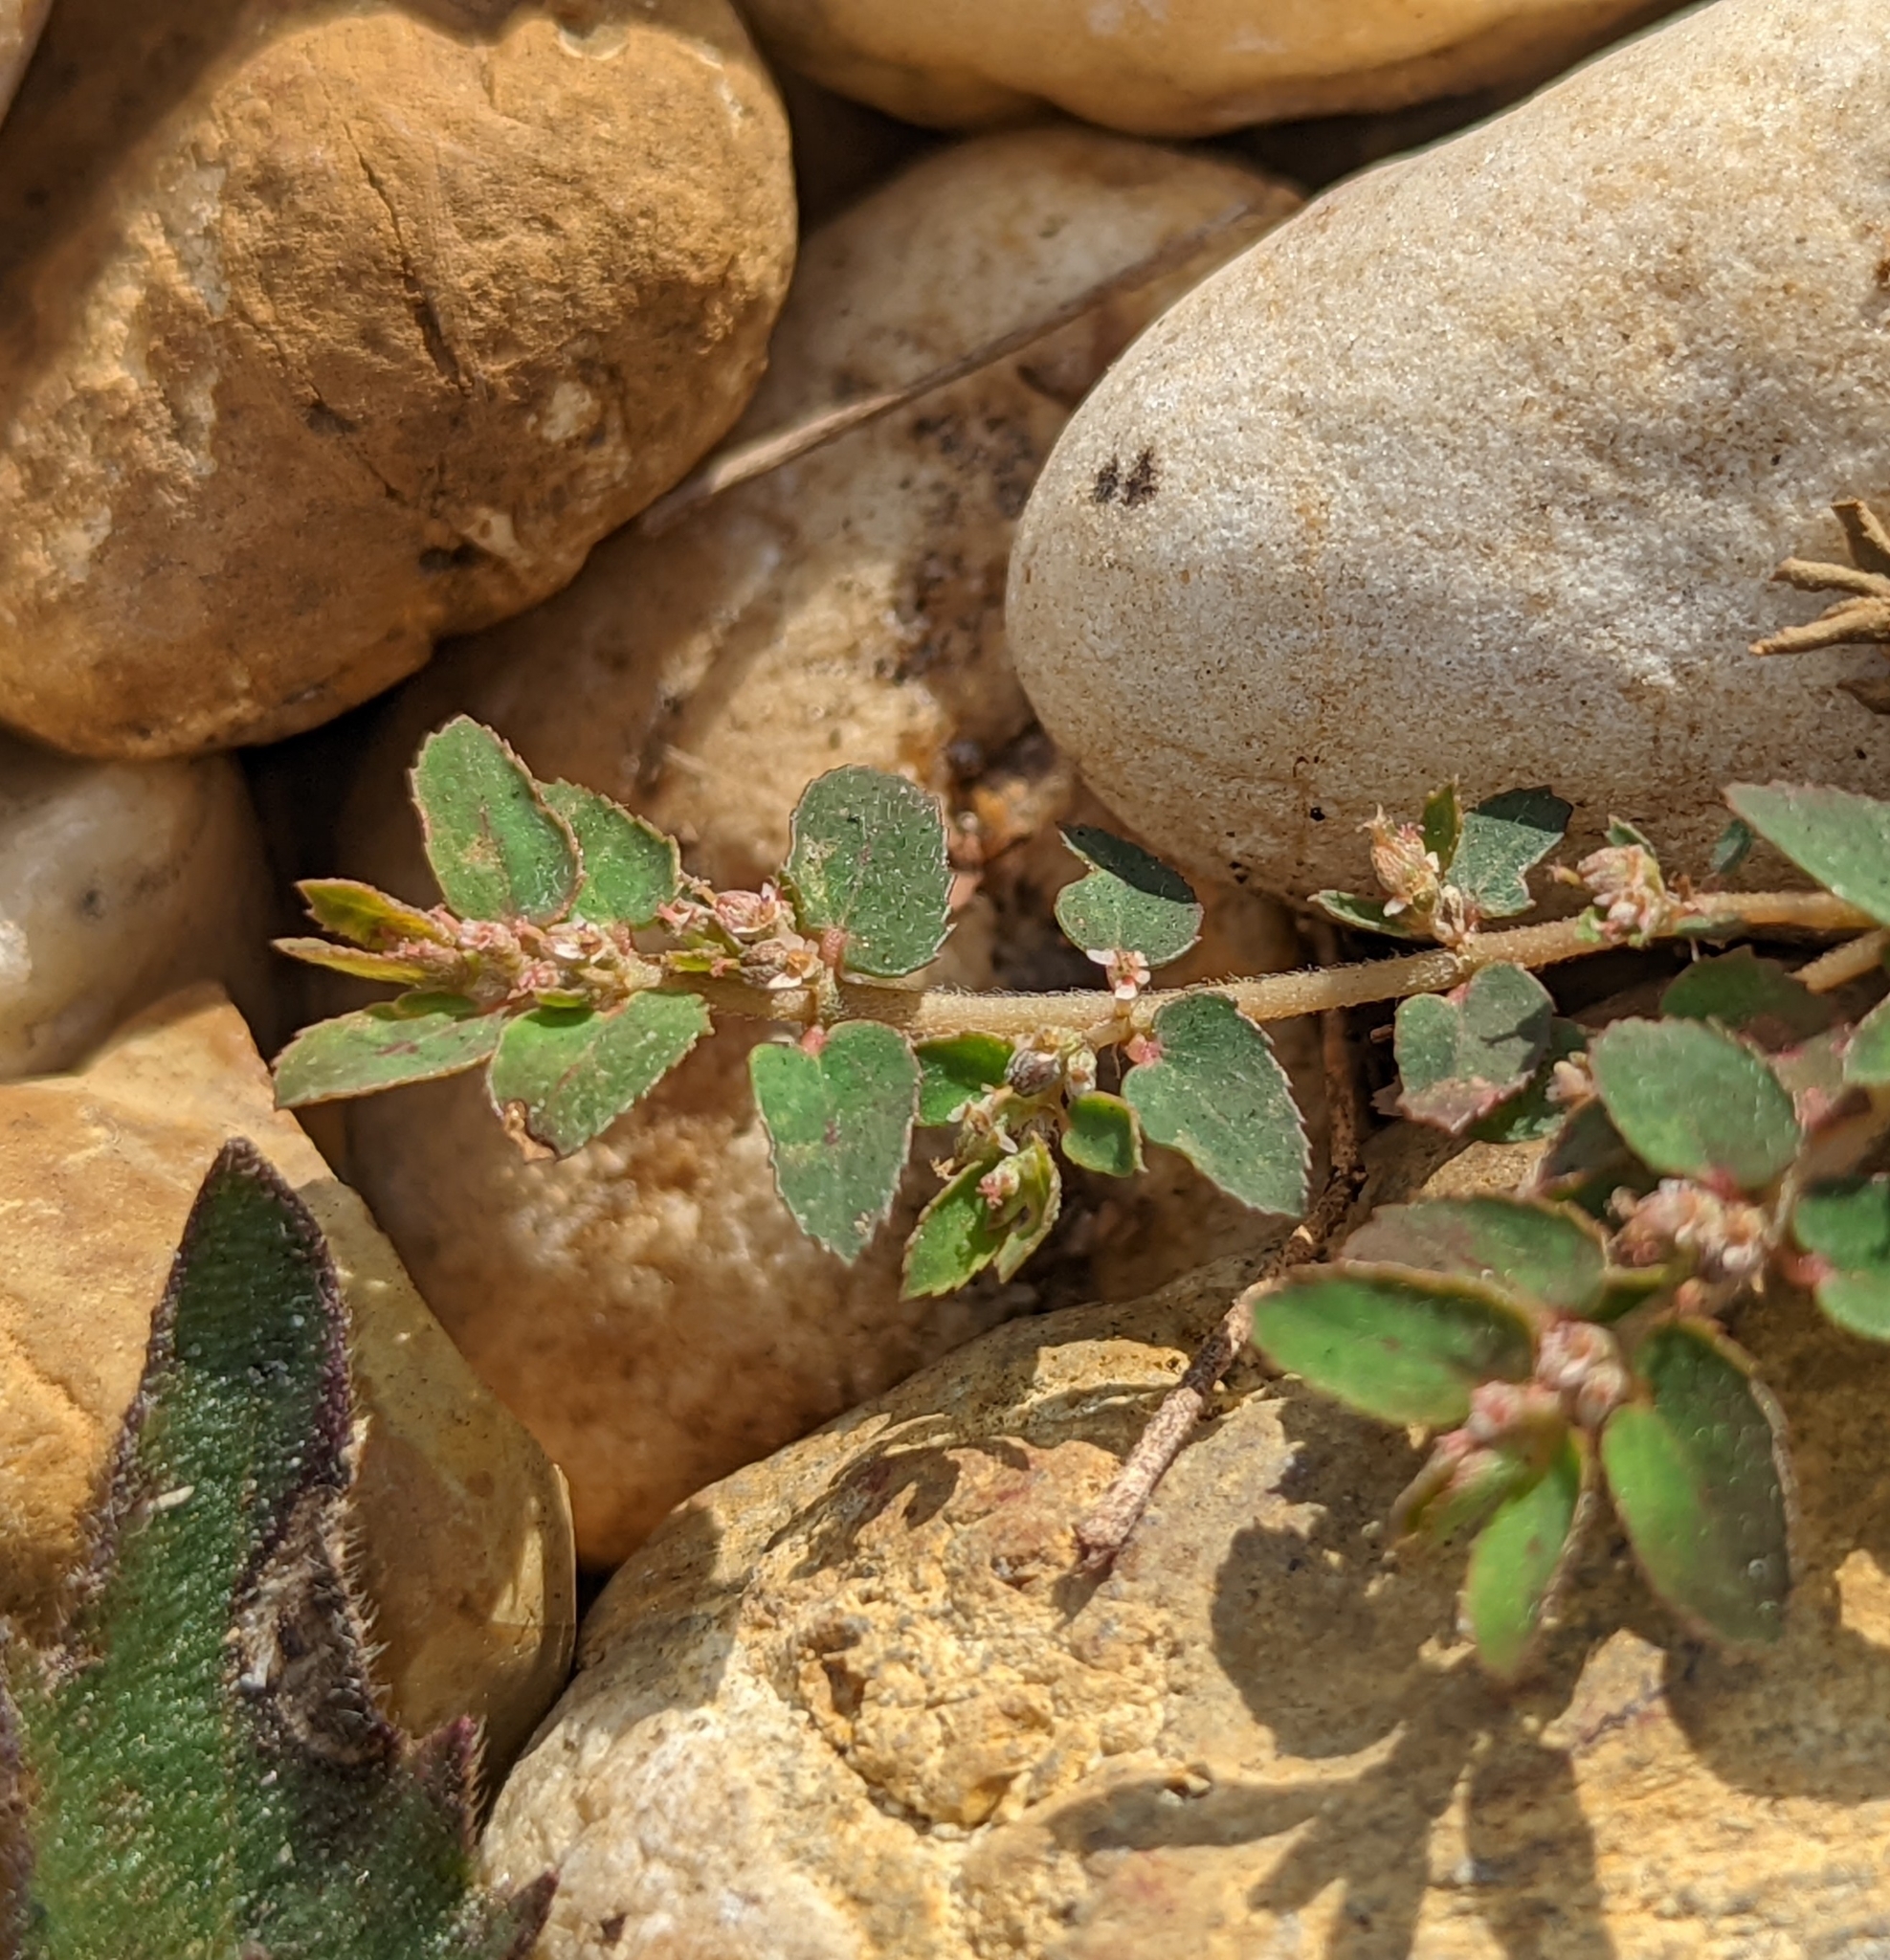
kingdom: Plantae
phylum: Tracheophyta
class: Magnoliopsida
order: Malpighiales
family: Euphorbiaceae
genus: Euphorbia
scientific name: Euphorbia thymifolia
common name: Gulf sandmat
